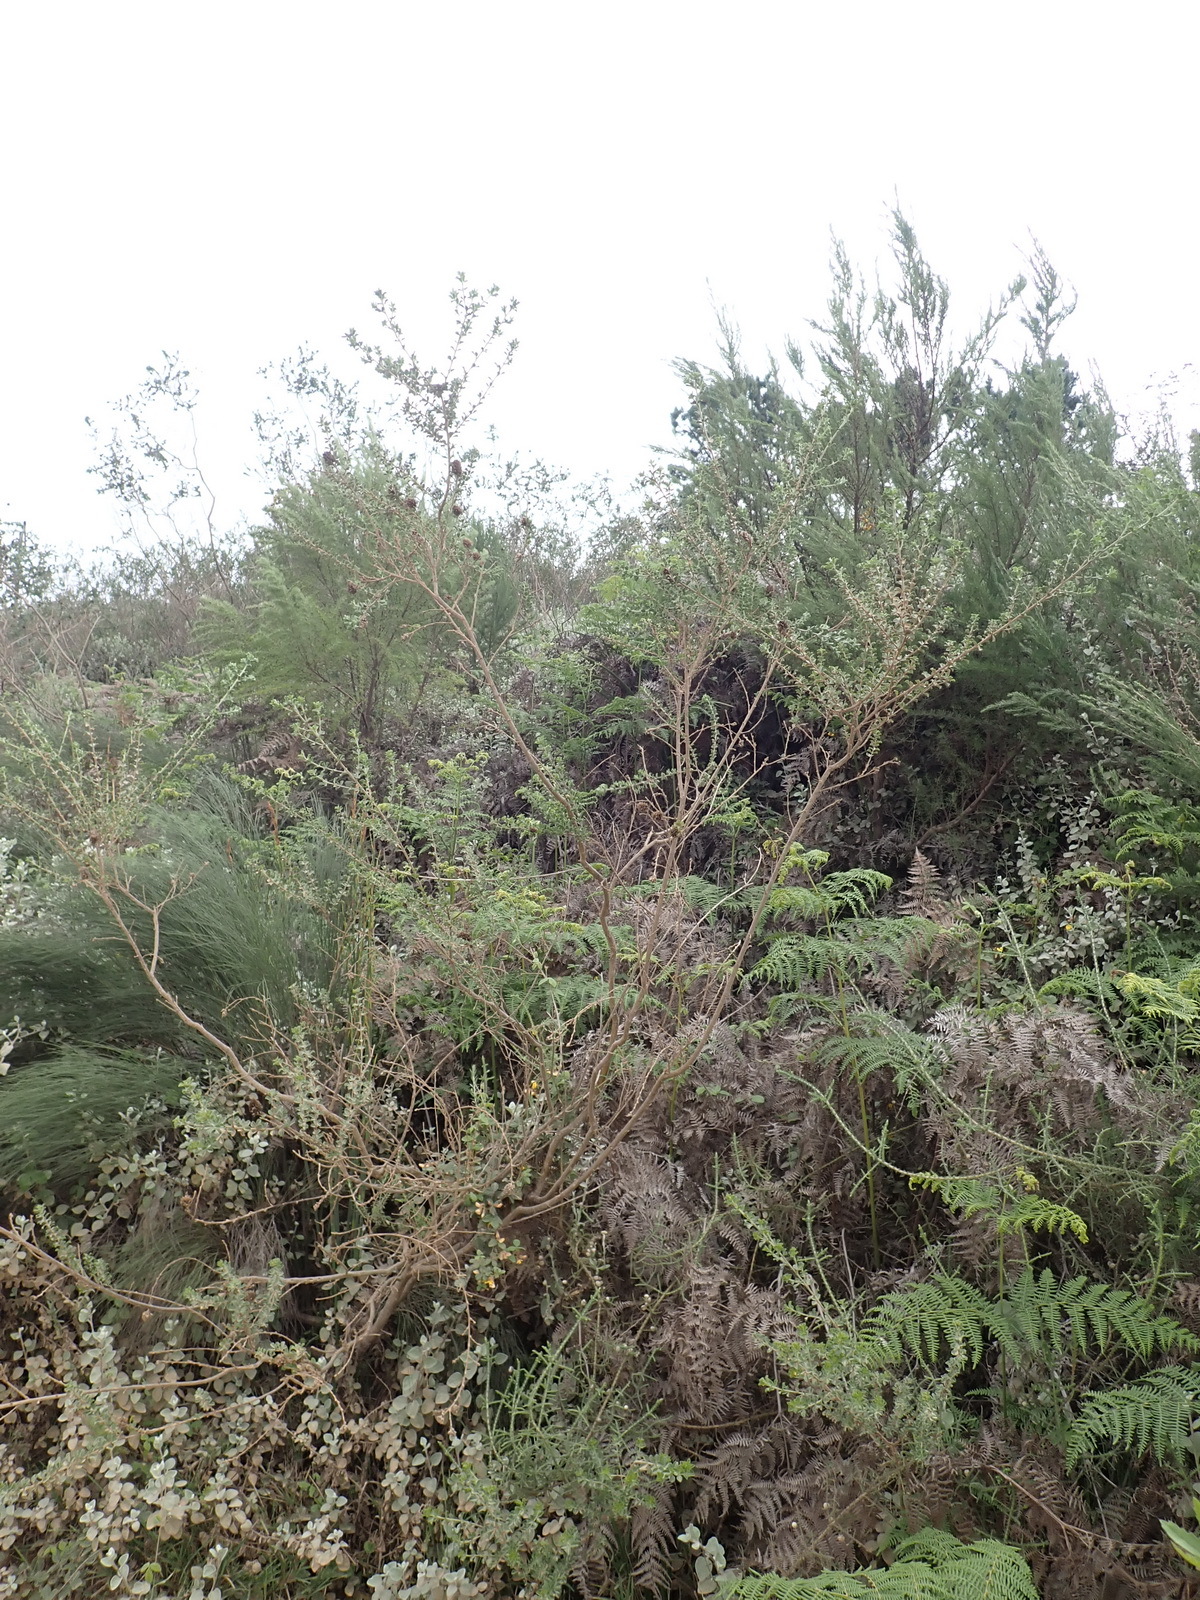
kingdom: Plantae
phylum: Tracheophyta
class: Magnoliopsida
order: Fabales
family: Fabaceae
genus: Psoralea
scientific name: Psoralea stachyera
